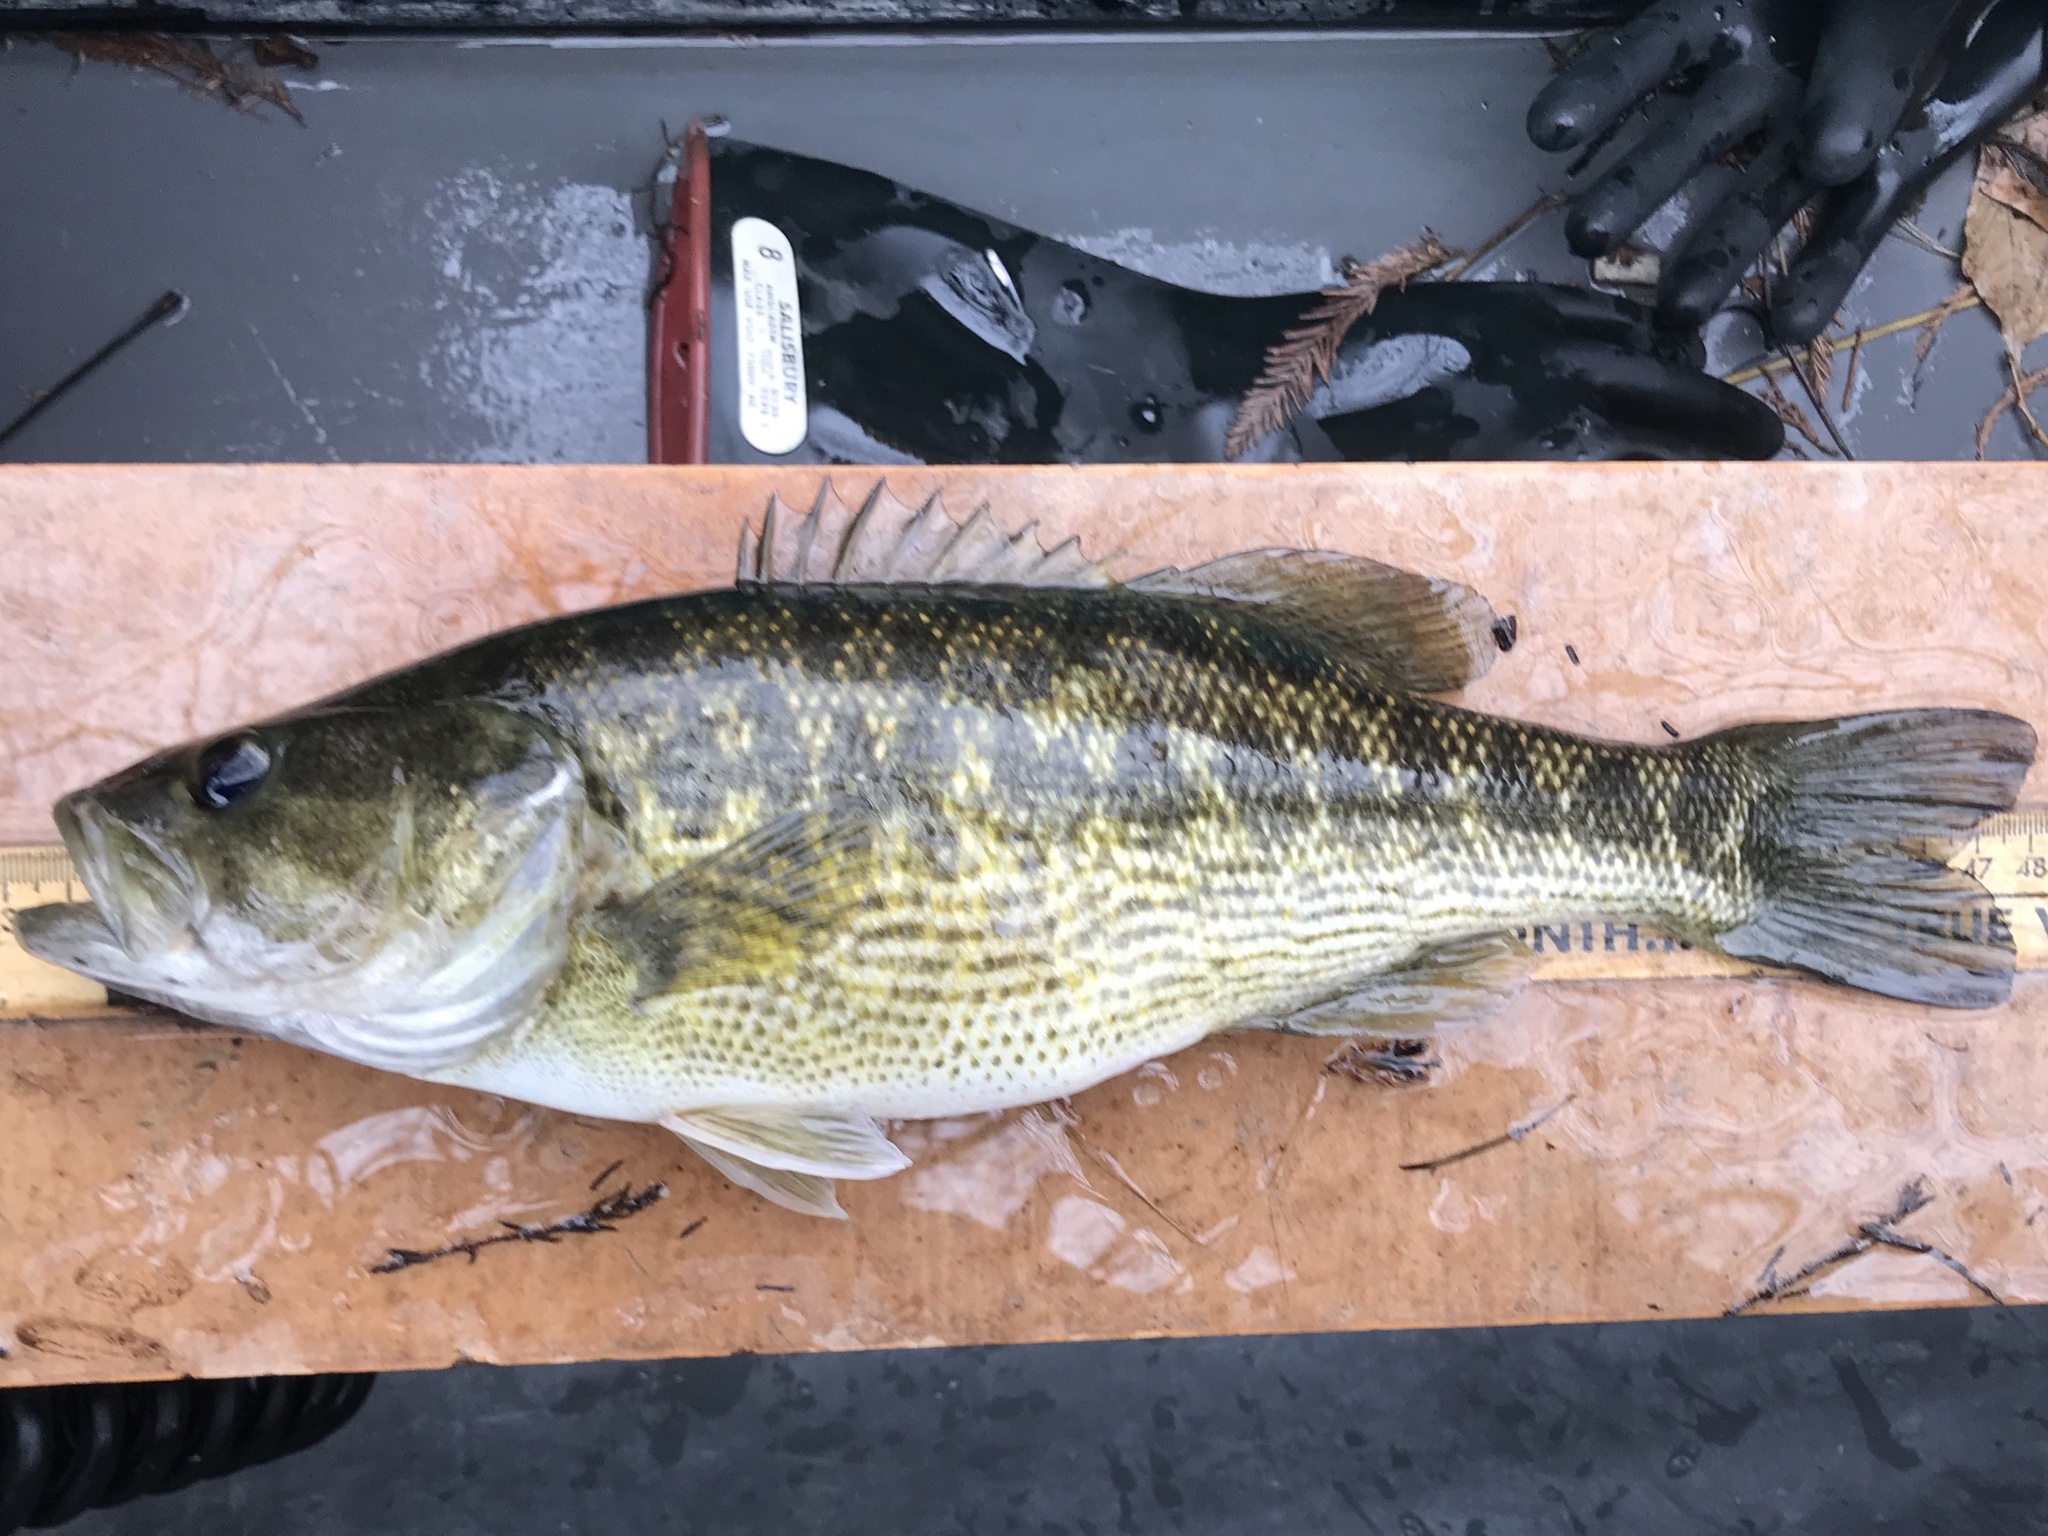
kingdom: Animalia
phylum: Chordata
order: Perciformes
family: Centrarchidae
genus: Micropterus
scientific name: Micropterus treculii
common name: Guadalupe bass
